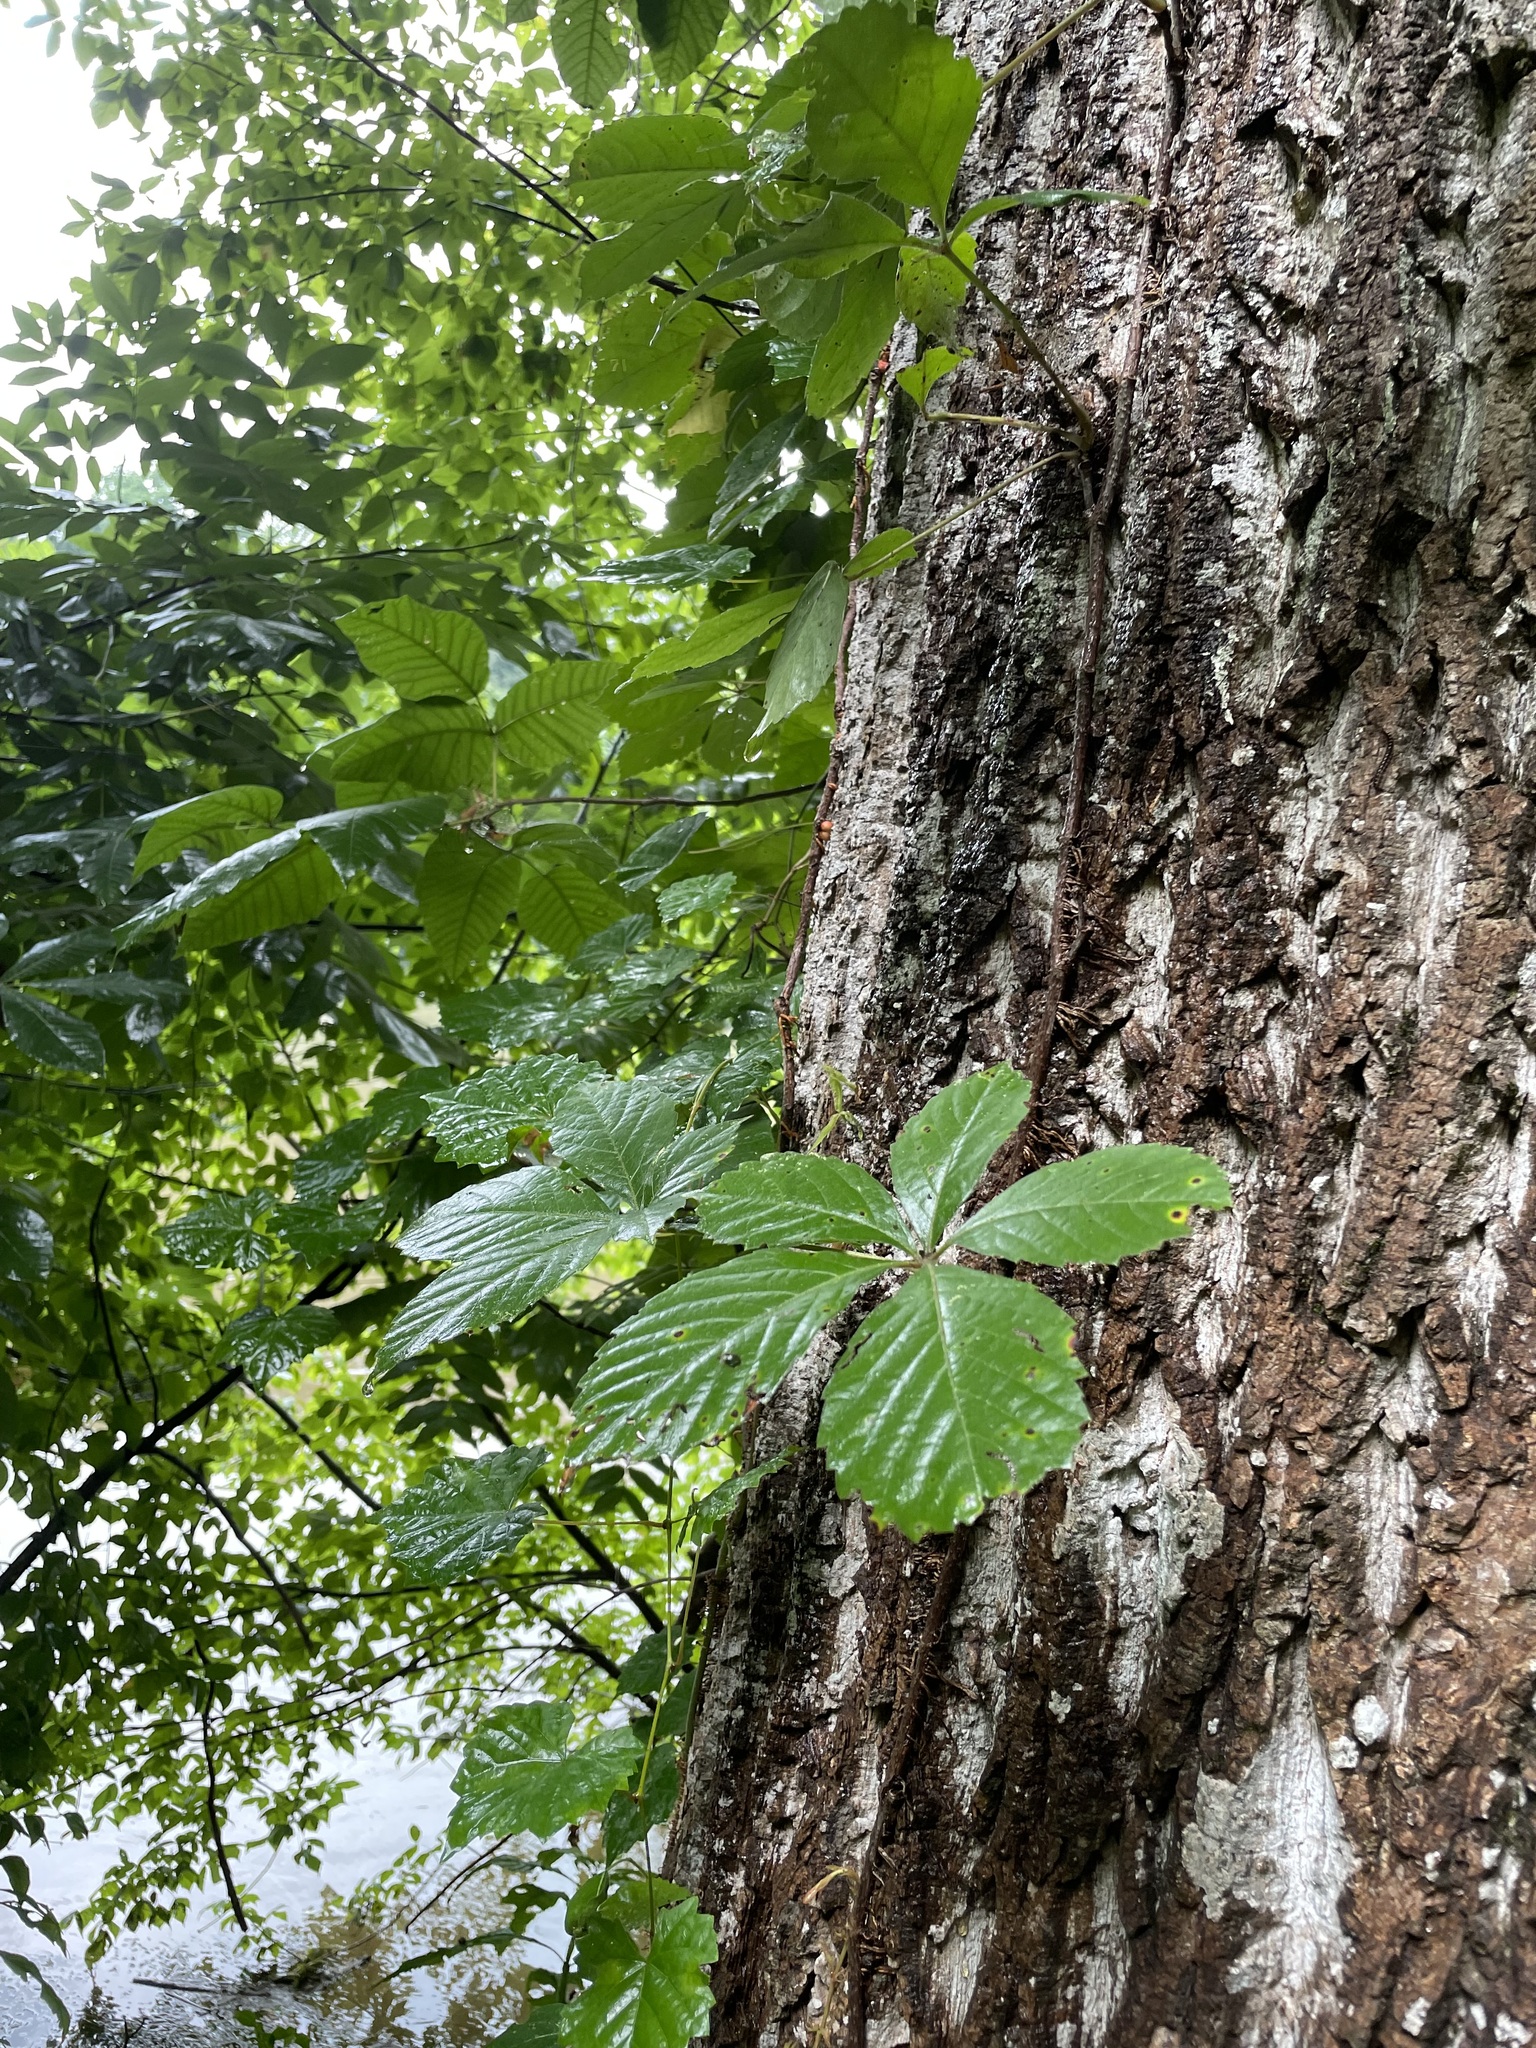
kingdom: Plantae
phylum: Tracheophyta
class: Magnoliopsida
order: Vitales
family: Vitaceae
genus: Parthenocissus
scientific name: Parthenocissus quinquefolia
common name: Virginia-creeper
